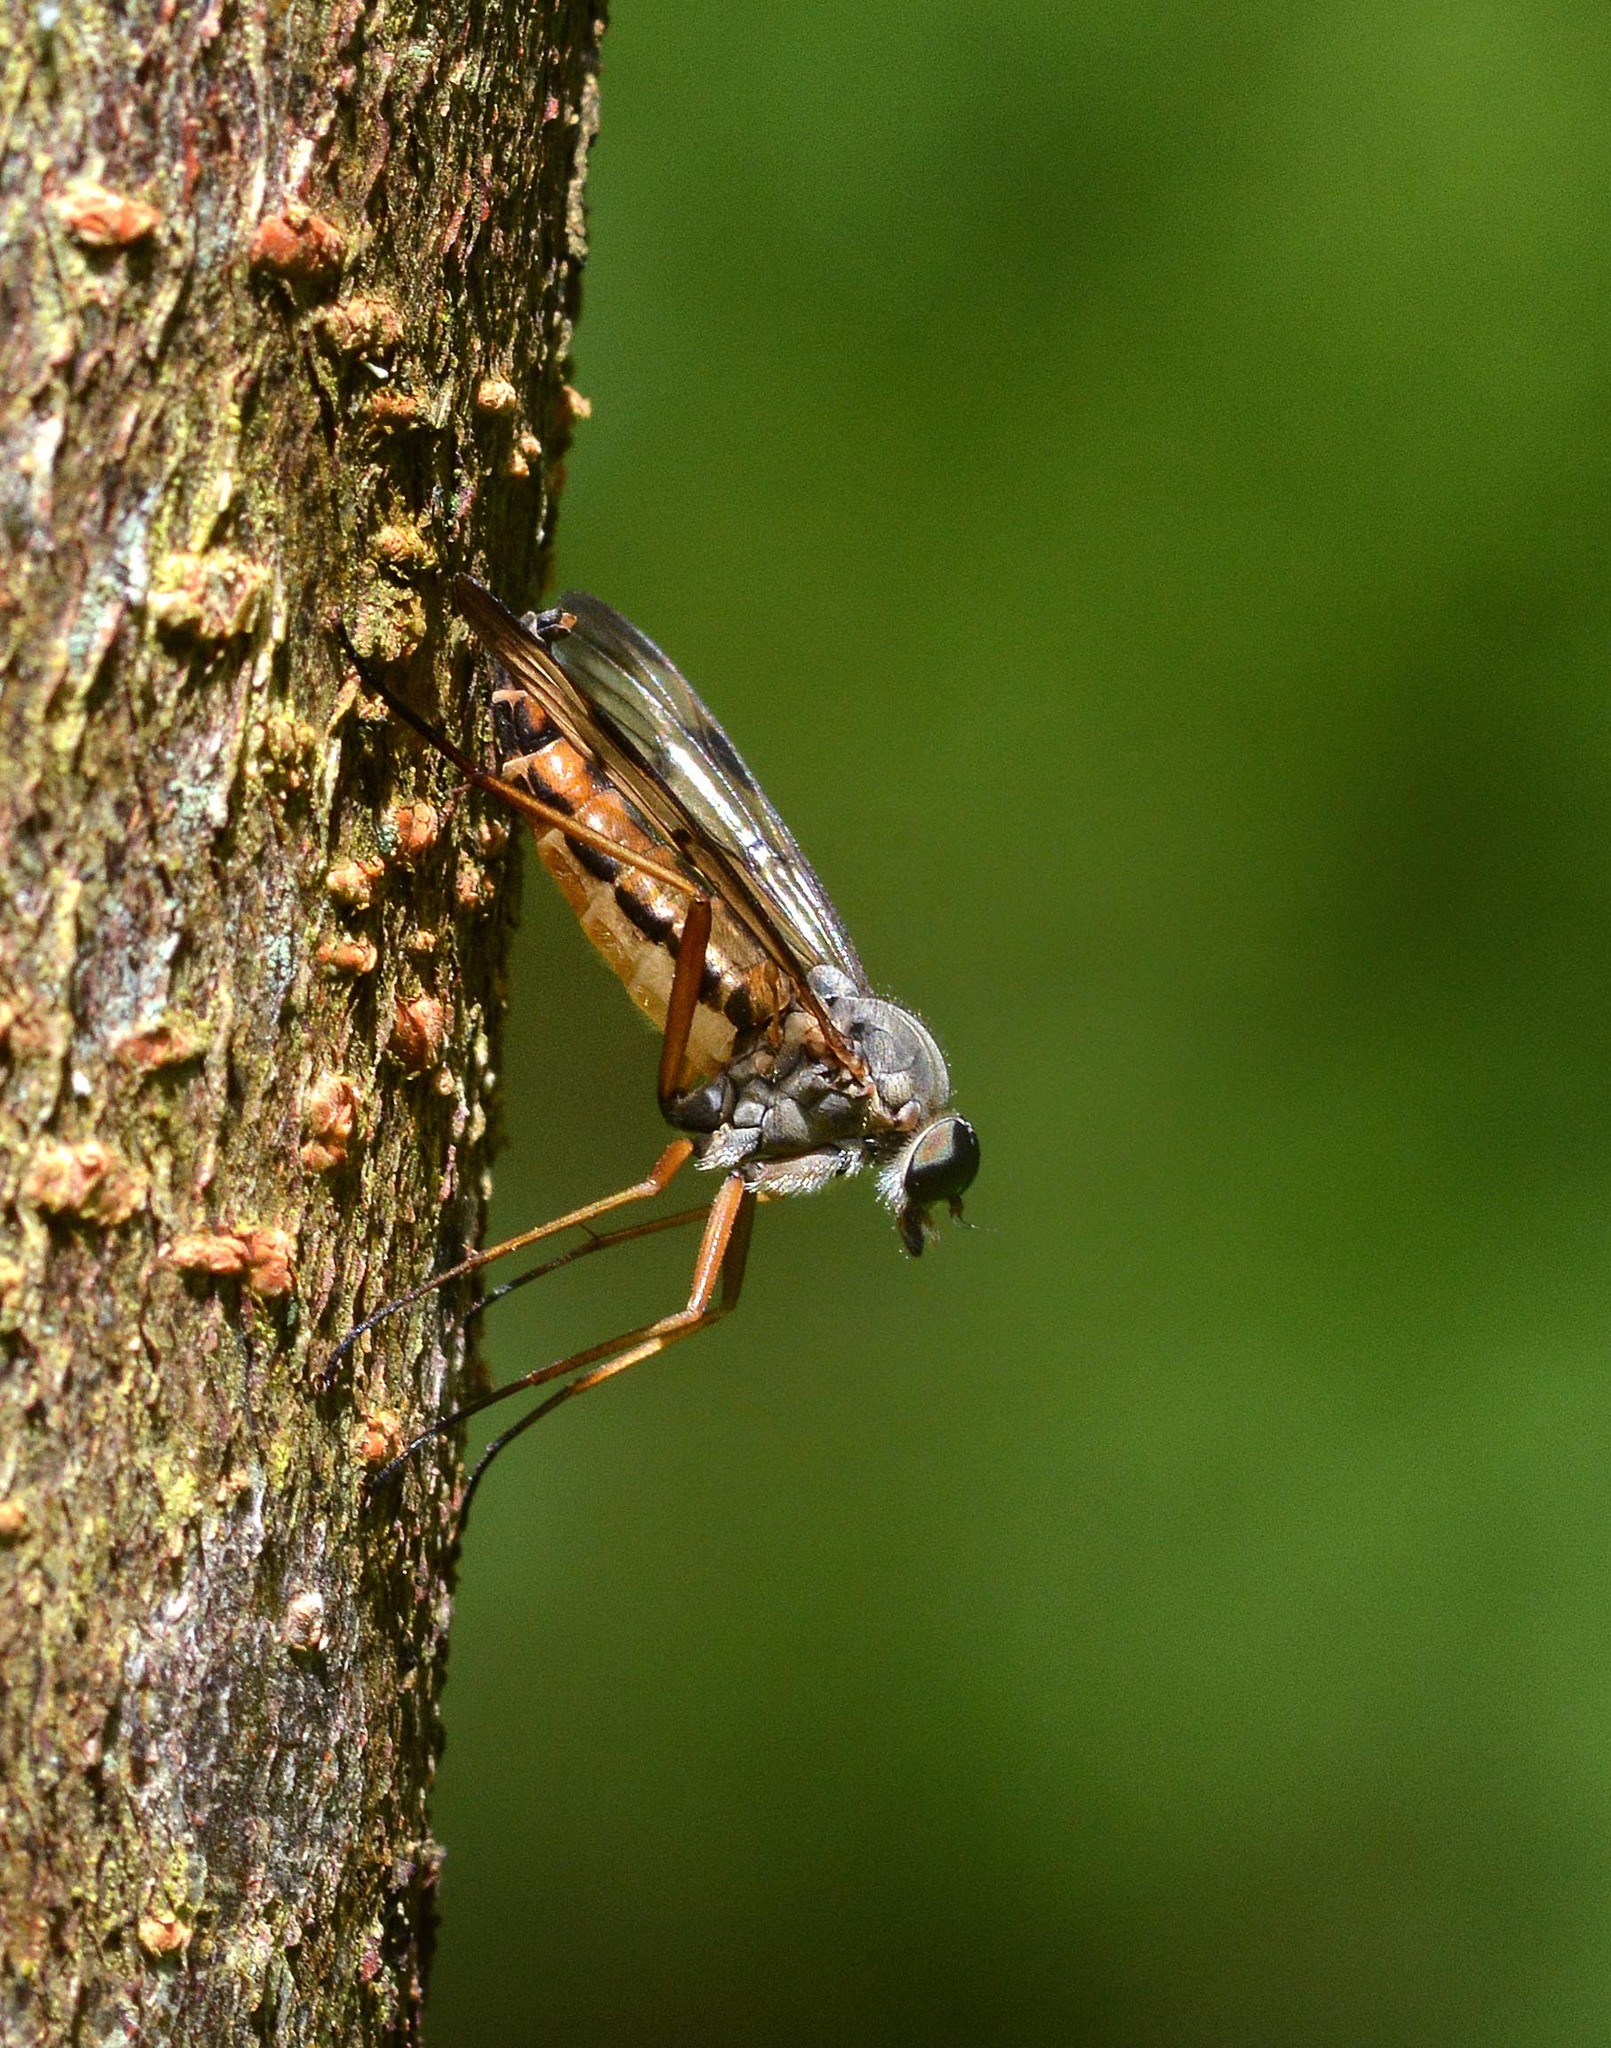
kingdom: Animalia
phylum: Arthropoda
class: Insecta
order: Diptera
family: Rhagionidae
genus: Rhagio
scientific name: Rhagio scolopacea
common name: Downlooker snipefly
